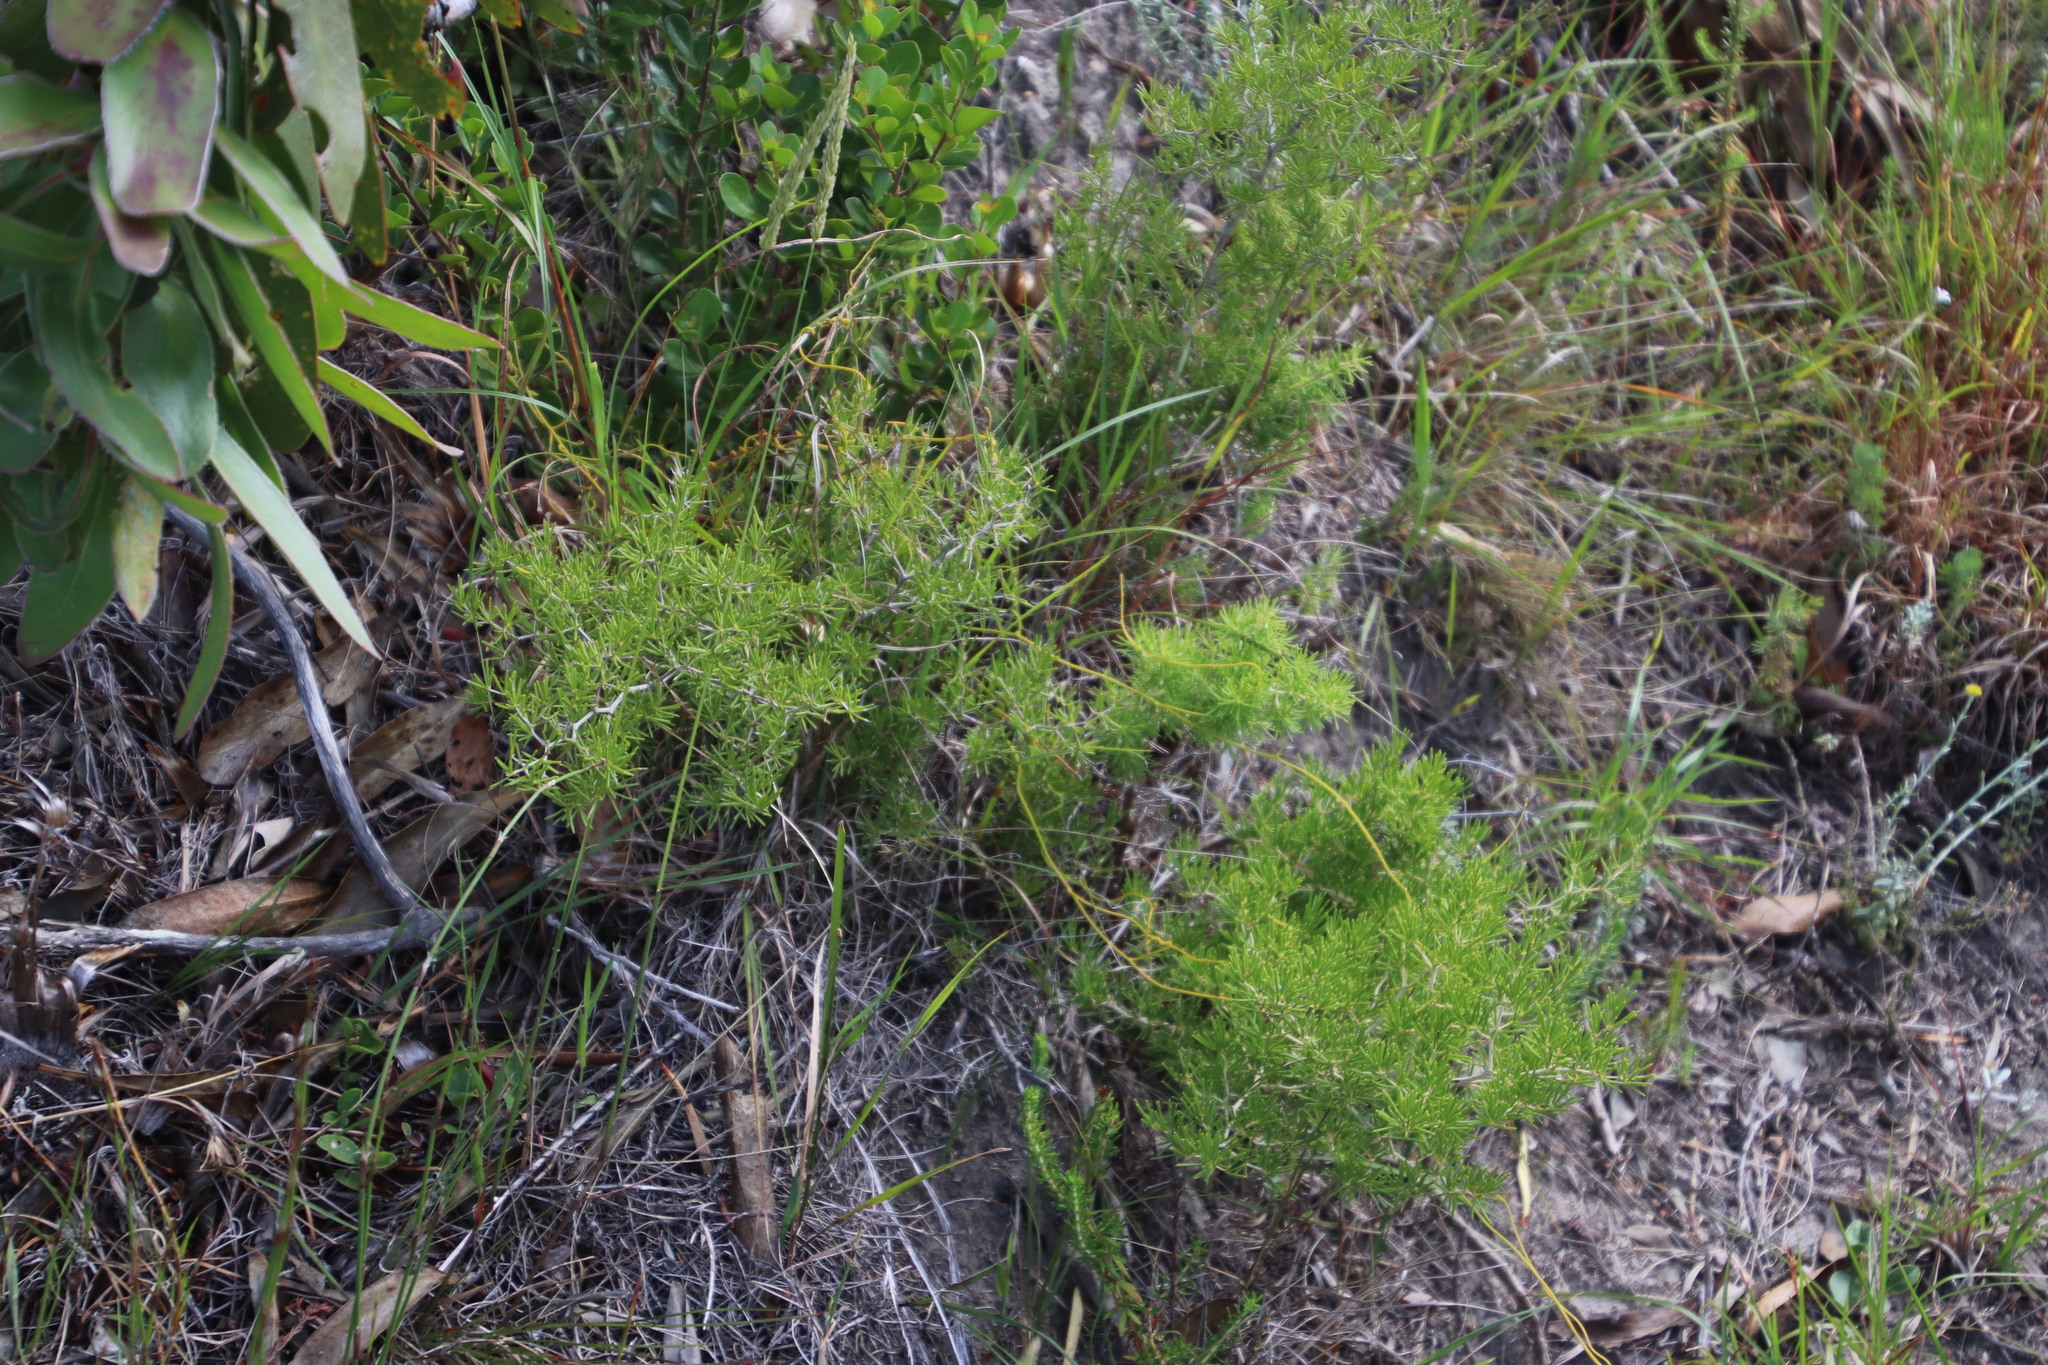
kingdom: Plantae
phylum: Tracheophyta
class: Liliopsida
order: Asparagales
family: Asparagaceae
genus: Asparagus
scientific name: Asparagus lignosus
